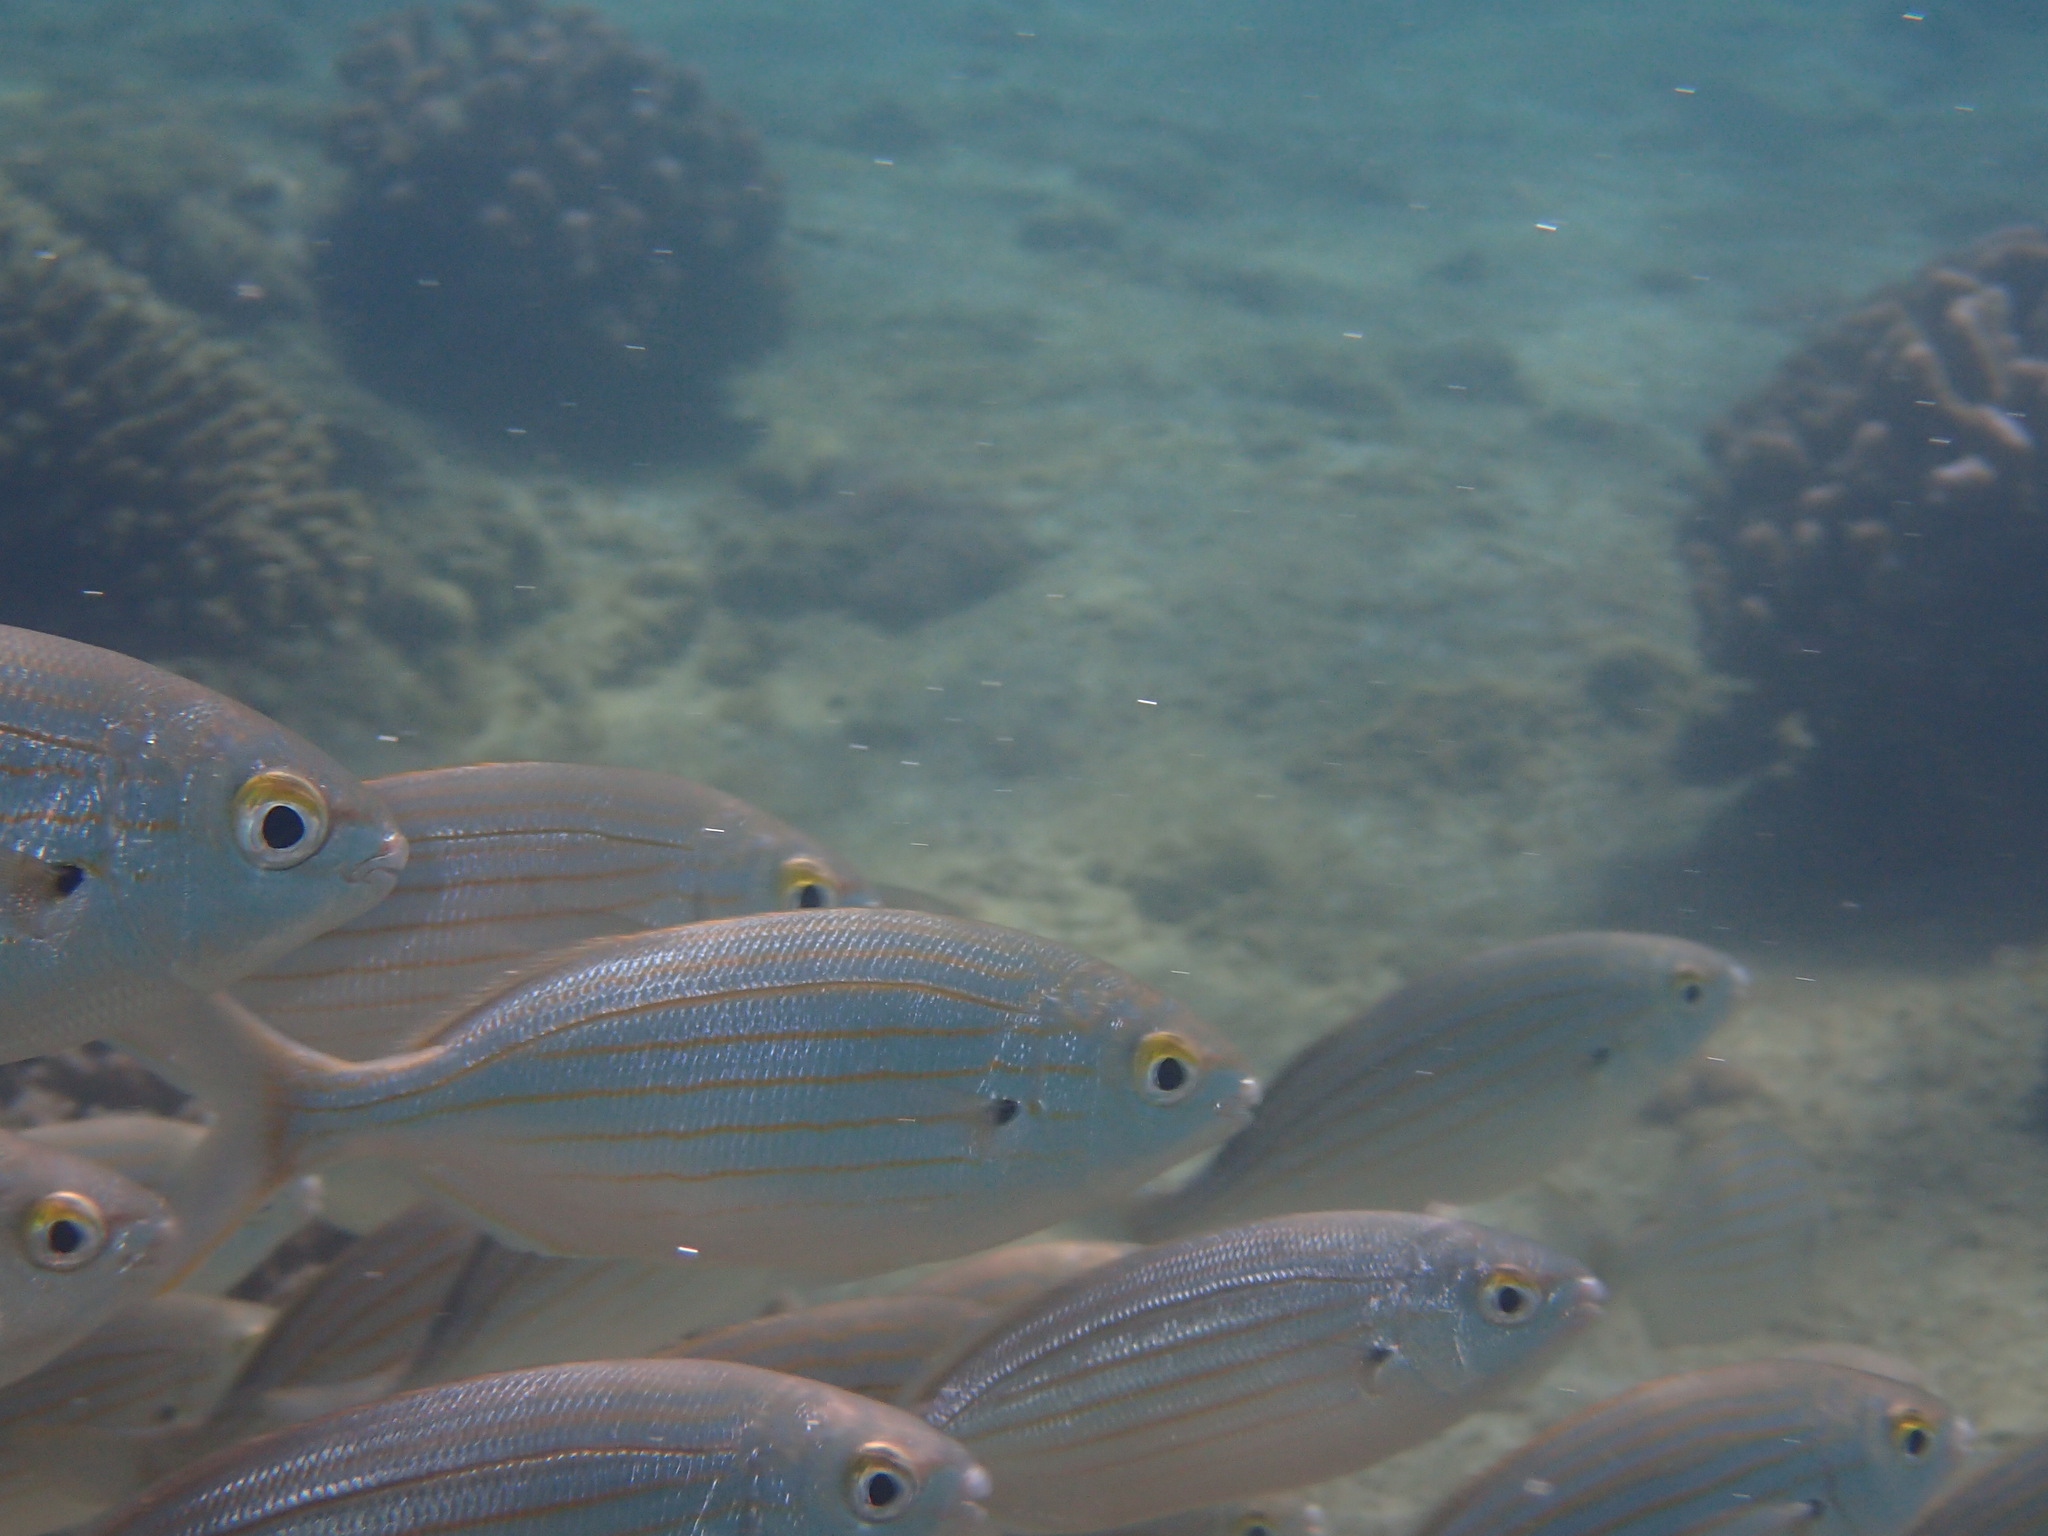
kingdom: Animalia
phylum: Chordata
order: Perciformes
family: Sparidae
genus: Sarpa
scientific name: Sarpa salpa
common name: Salema
